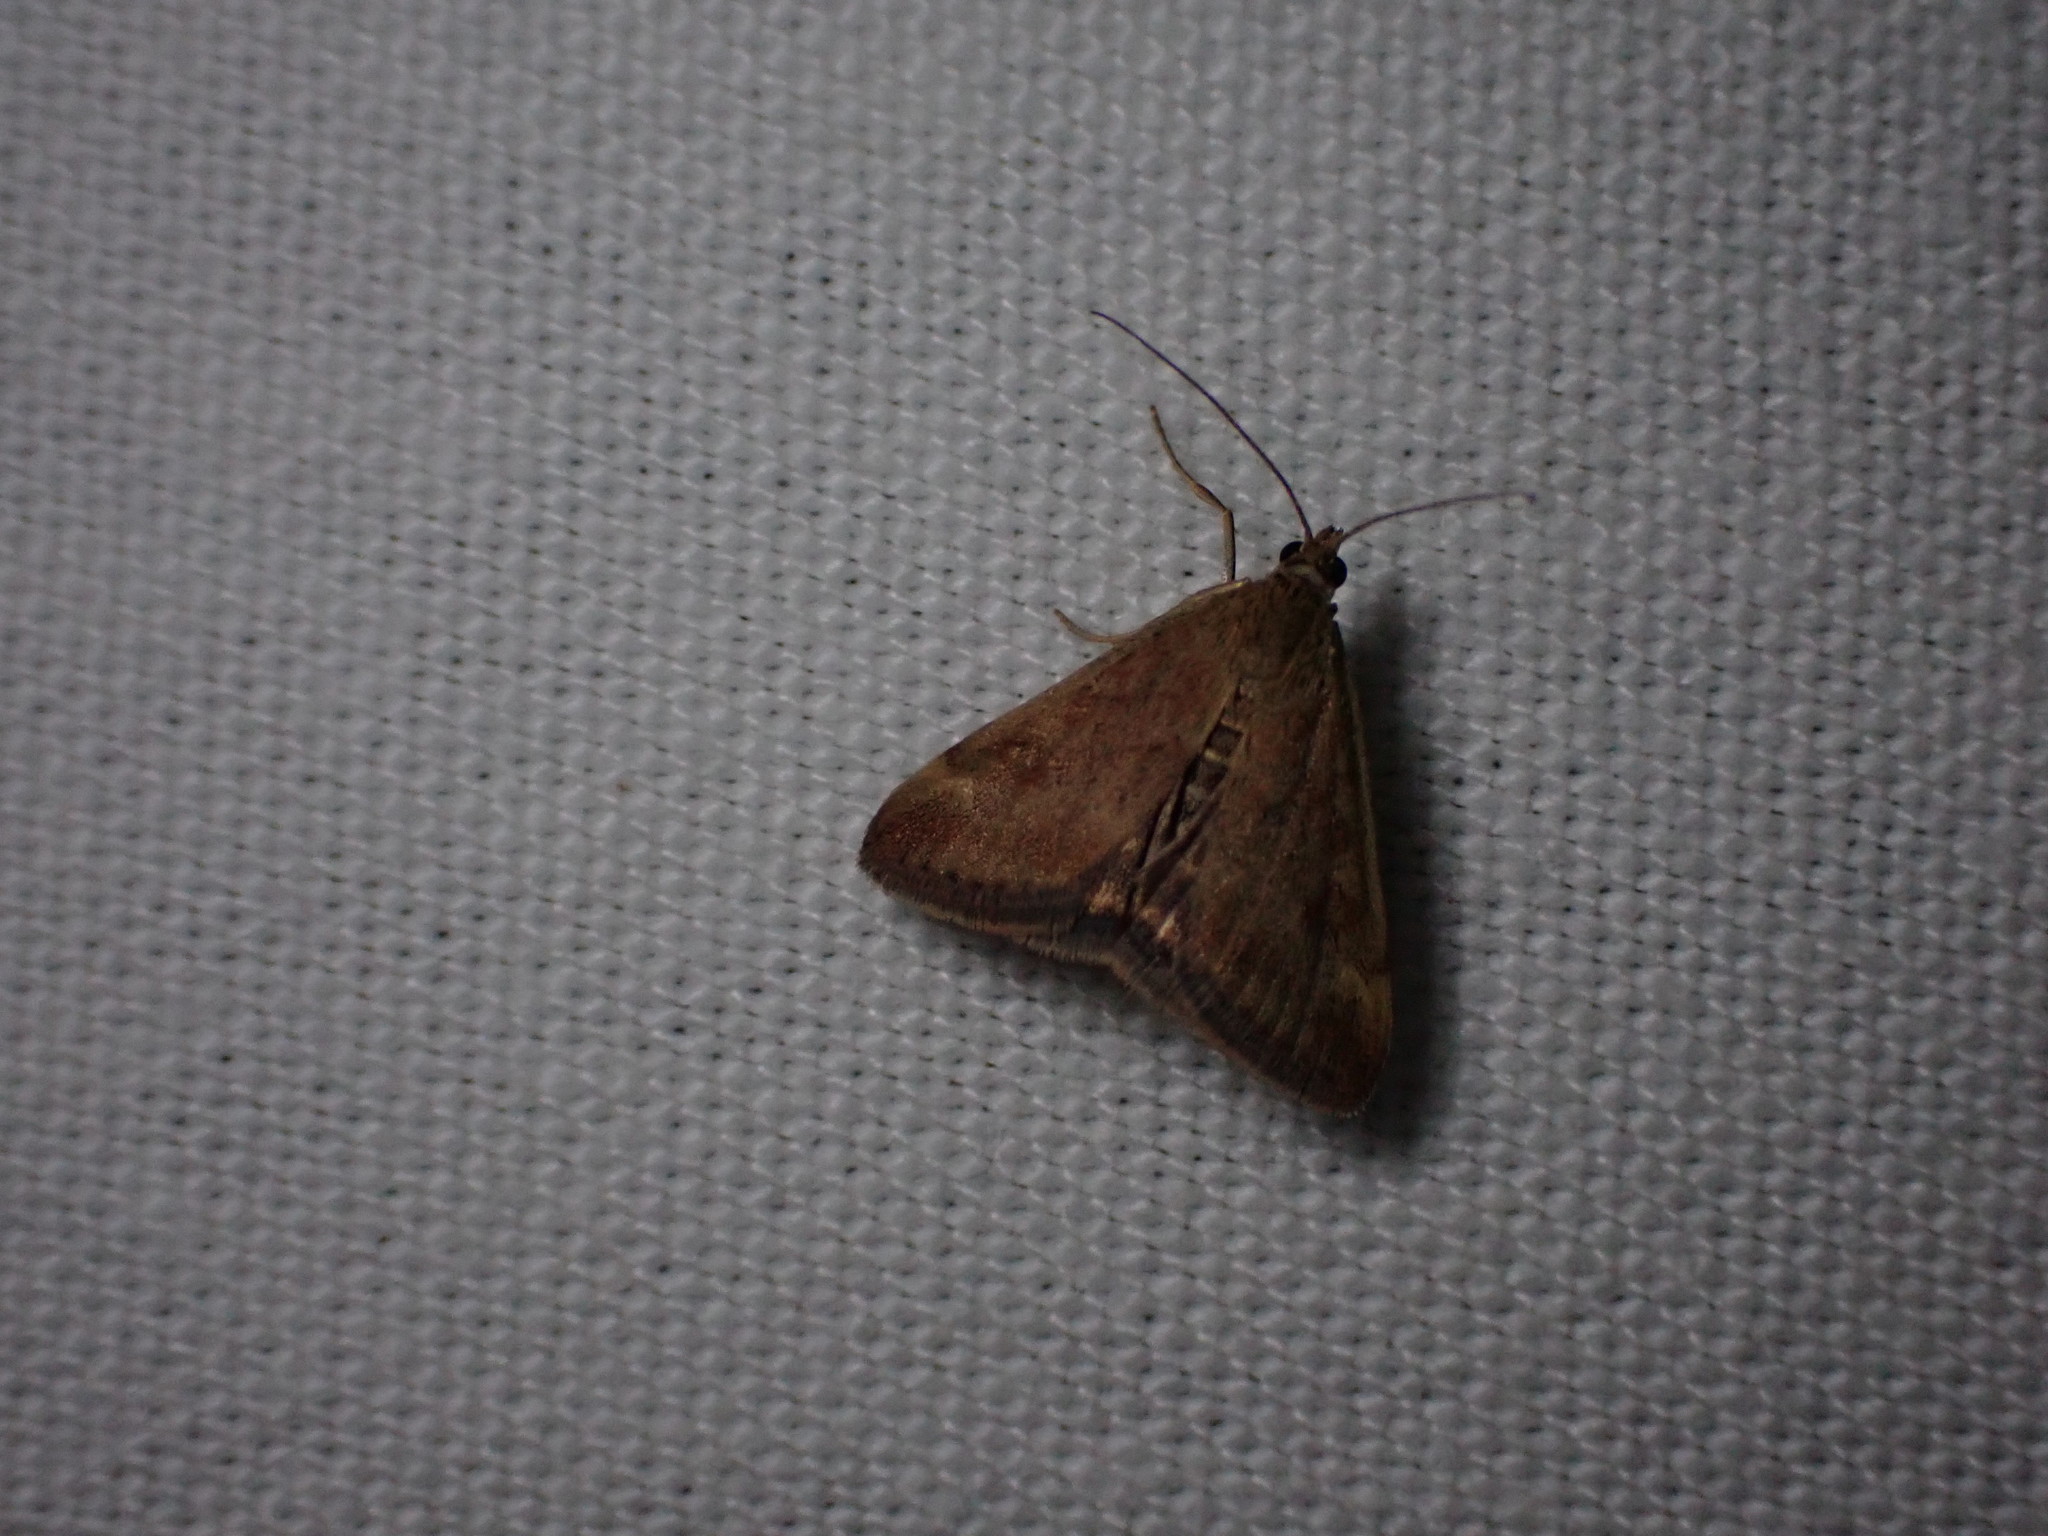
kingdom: Animalia
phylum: Arthropoda
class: Insecta
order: Lepidoptera
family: Crambidae
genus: Pyrausta
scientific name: Pyrausta despicata
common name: Straw-barred pearl
